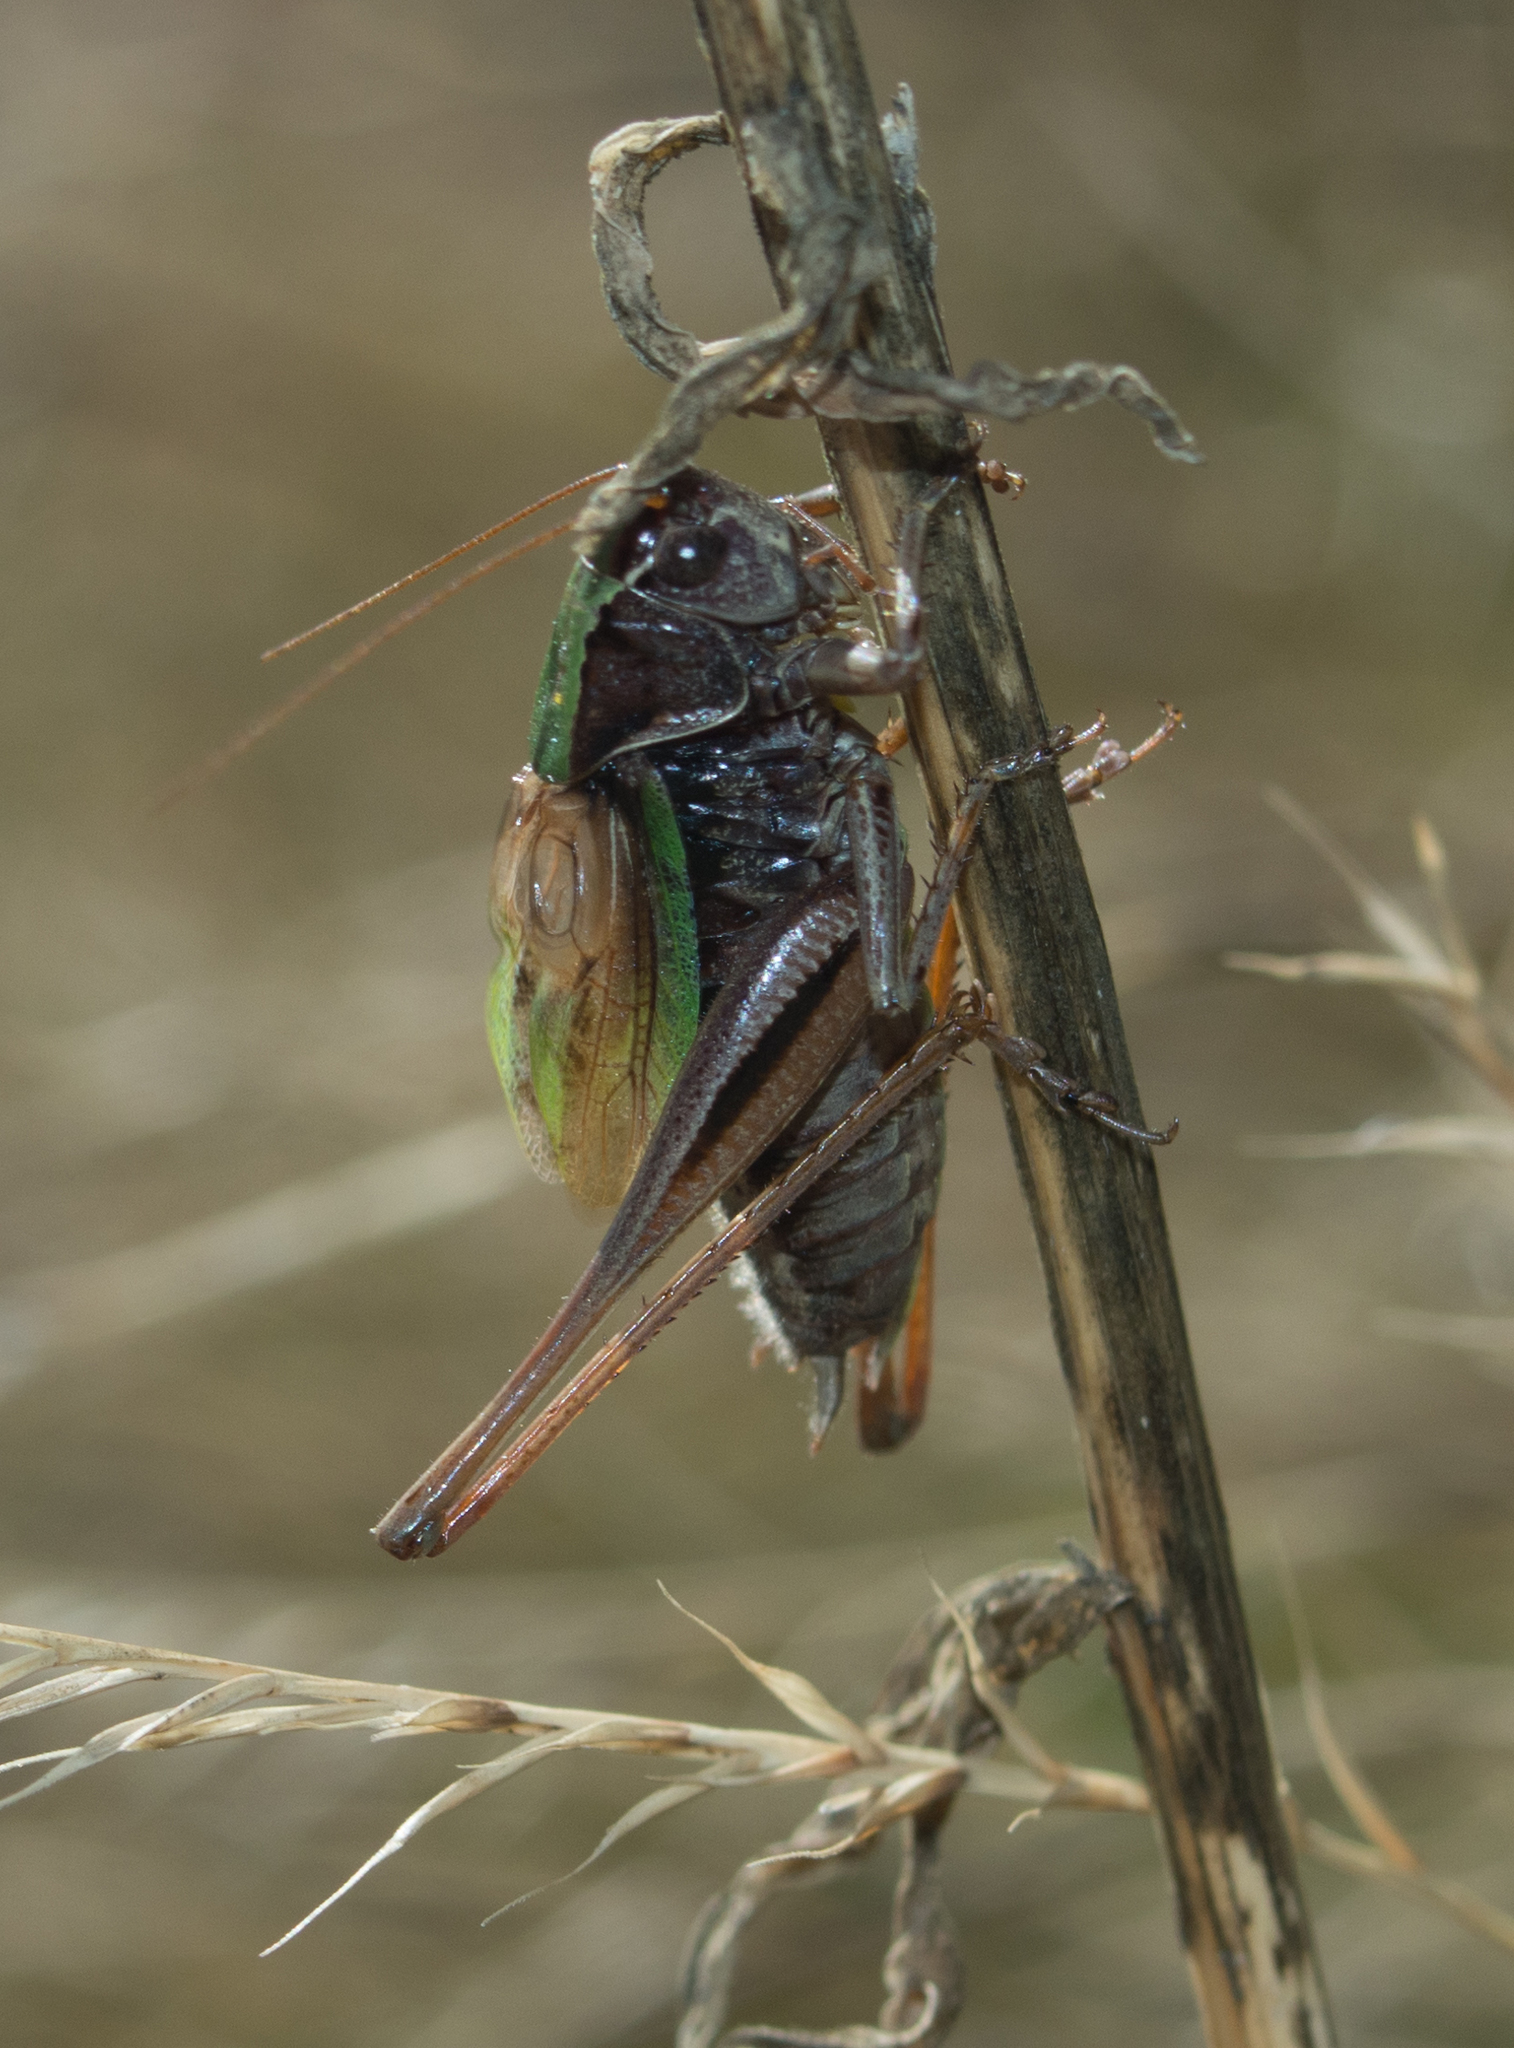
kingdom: Animalia
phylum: Arthropoda
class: Insecta
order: Orthoptera
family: Tettigoniidae
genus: Metrioptera
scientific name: Metrioptera brachyptera
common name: Bog bush-cricket
